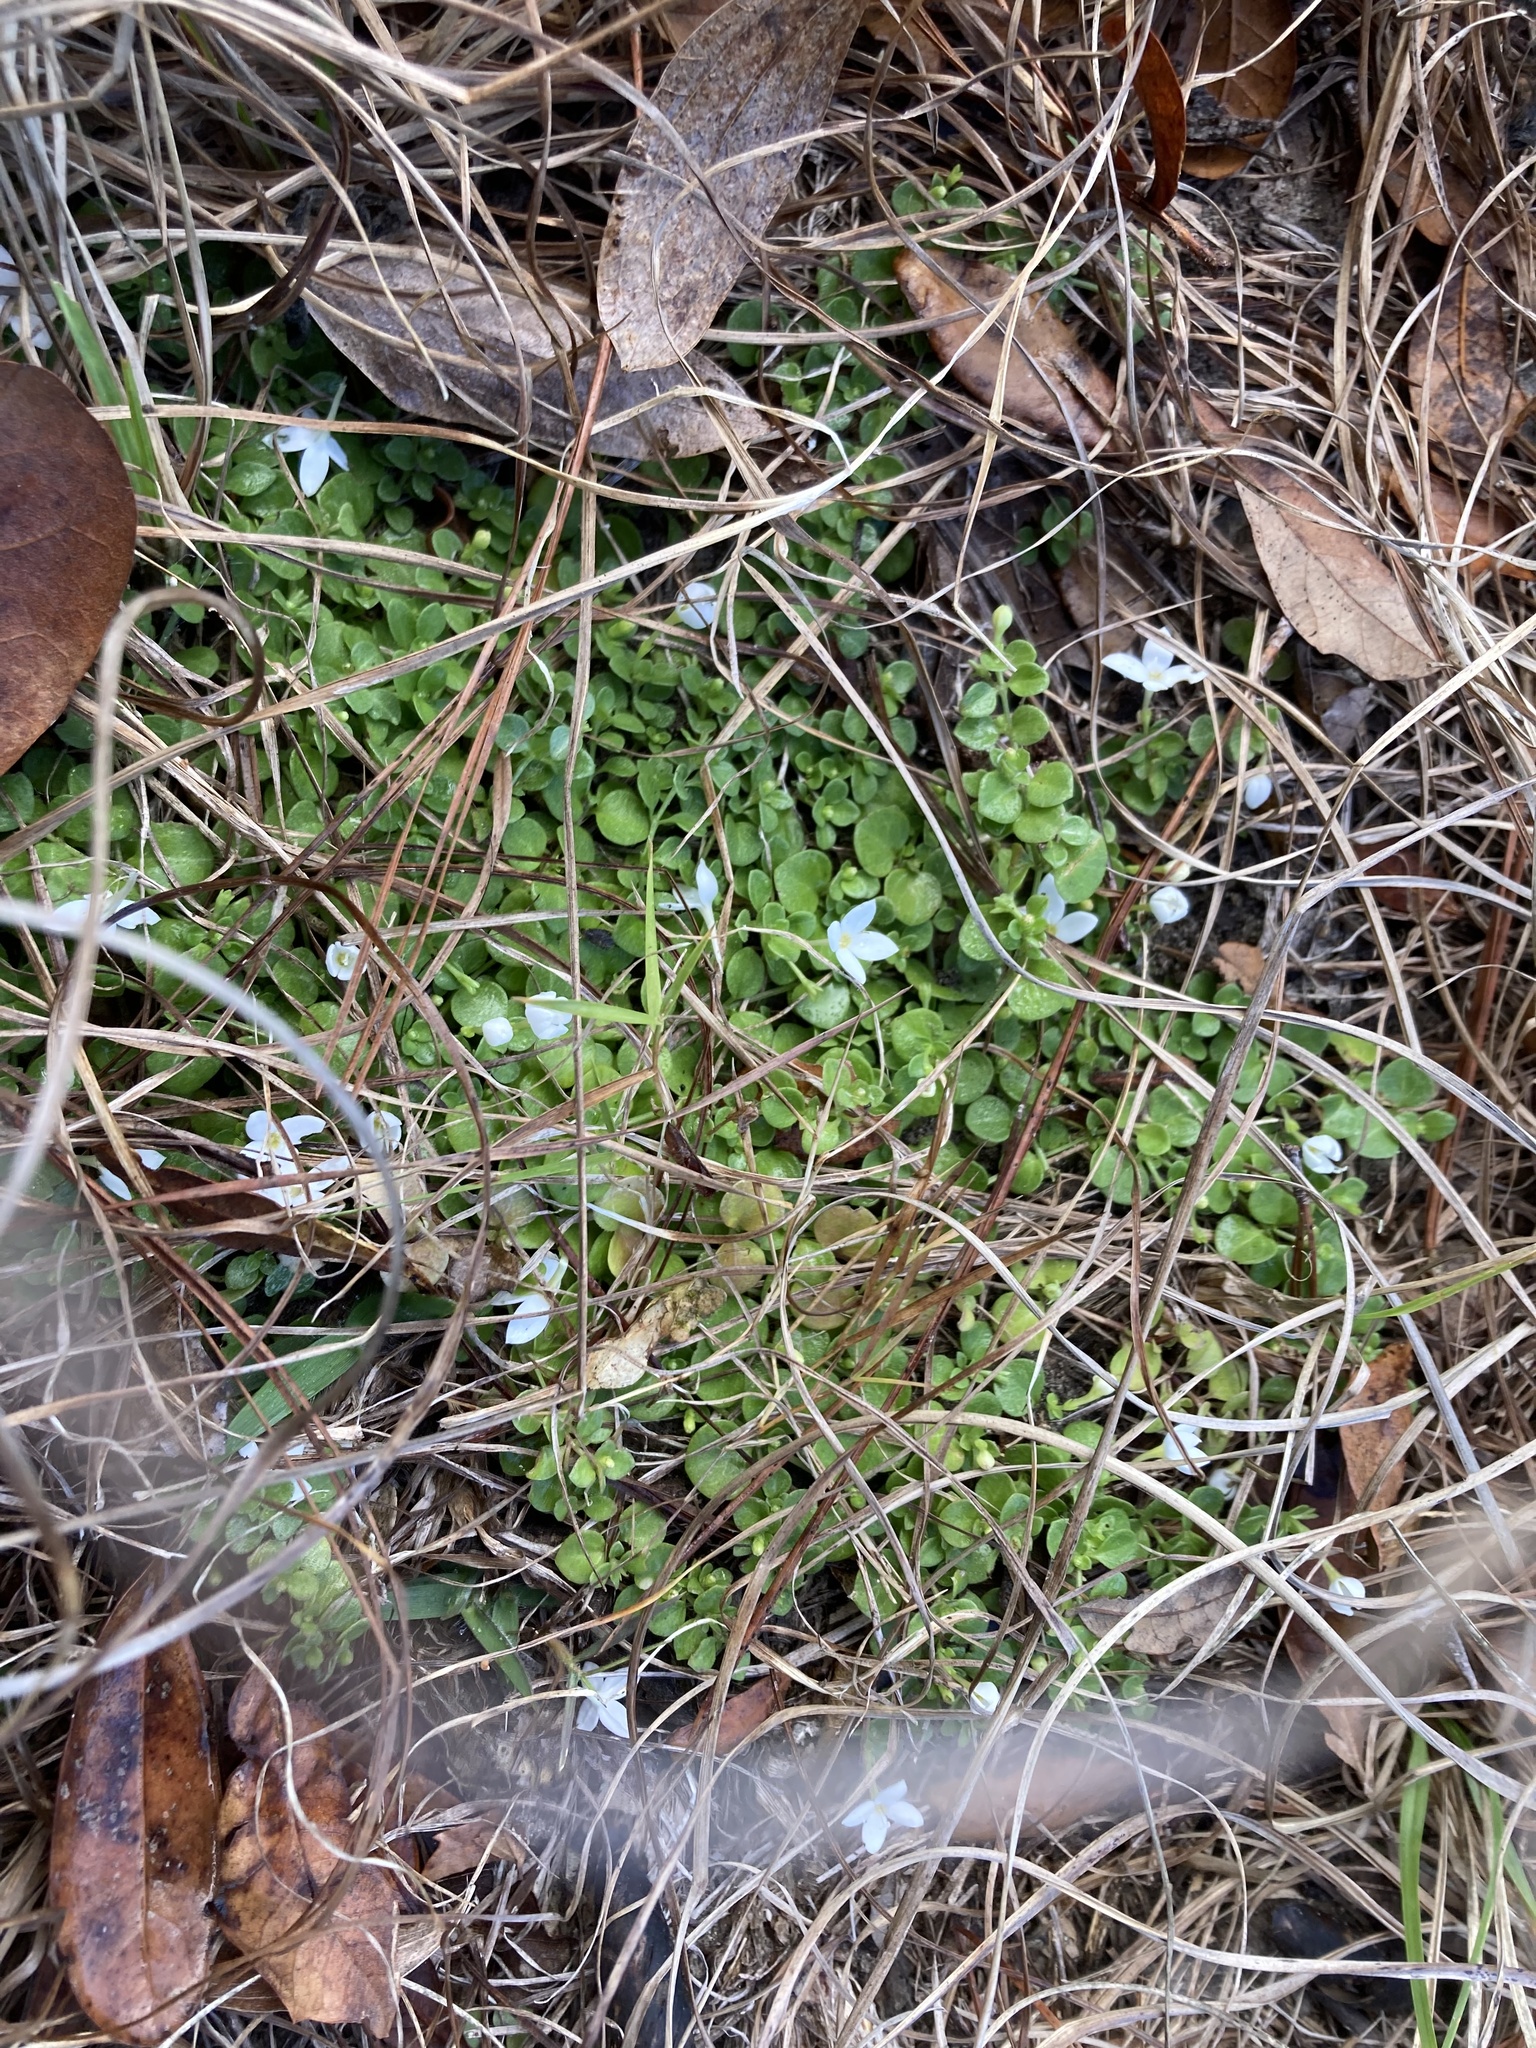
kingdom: Plantae
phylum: Tracheophyta
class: Magnoliopsida
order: Gentianales
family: Rubiaceae
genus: Houstonia
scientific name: Houstonia procumbens
